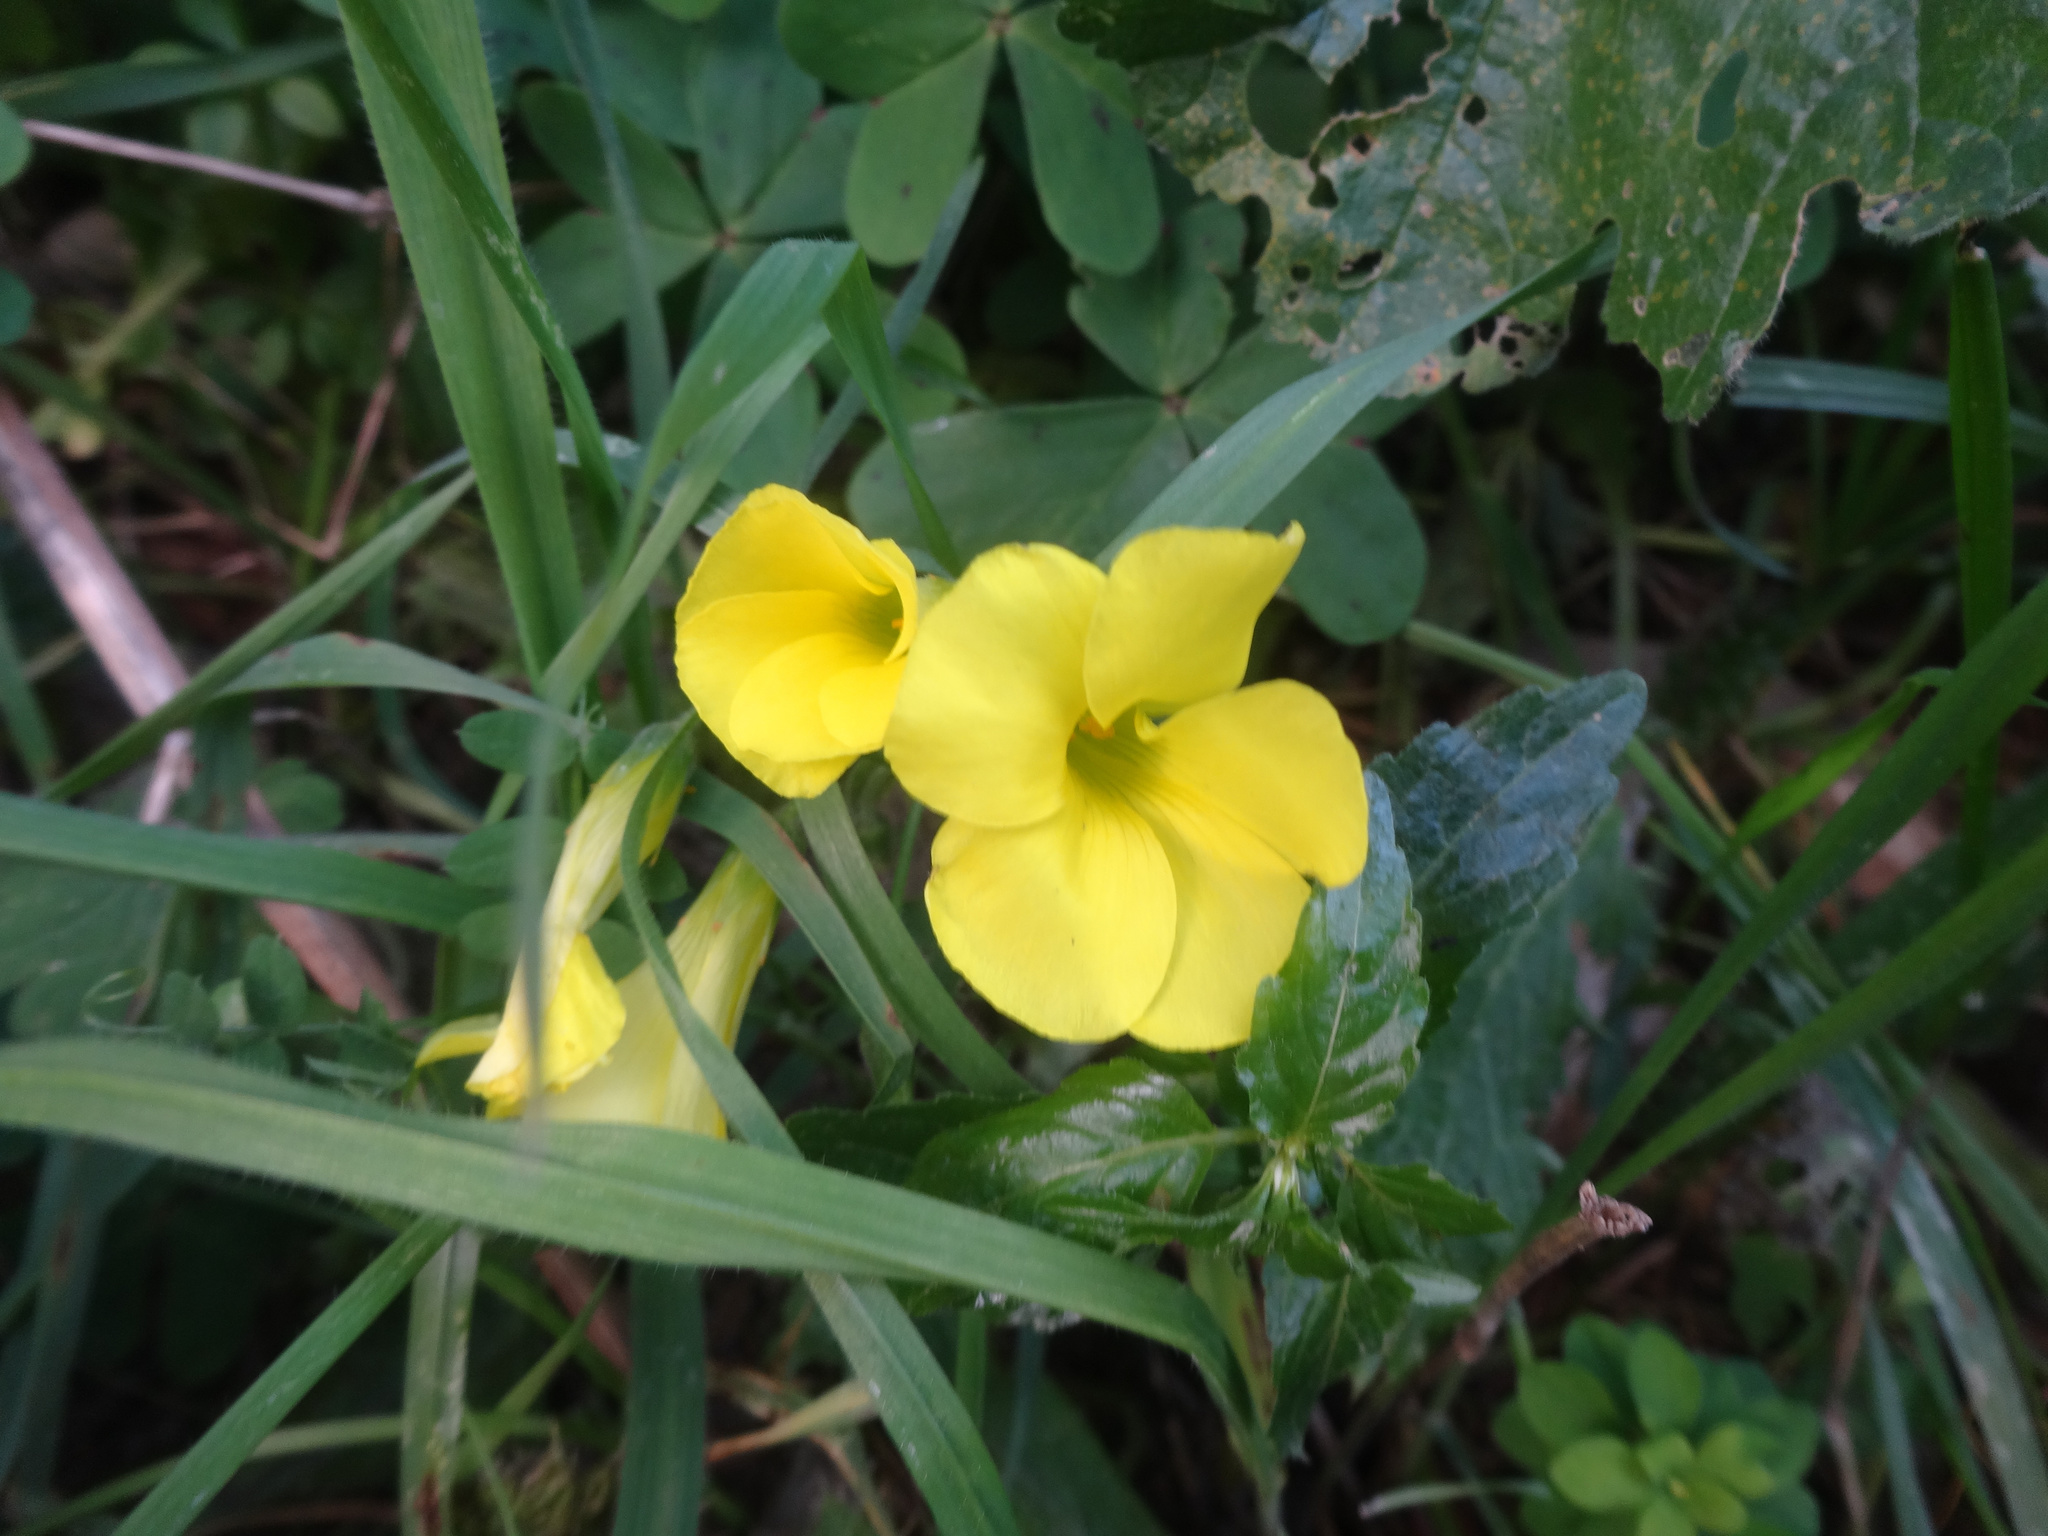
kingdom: Plantae
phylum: Tracheophyta
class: Magnoliopsida
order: Oxalidales
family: Oxalidaceae
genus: Oxalis
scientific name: Oxalis pes-caprae
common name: Bermuda-buttercup
